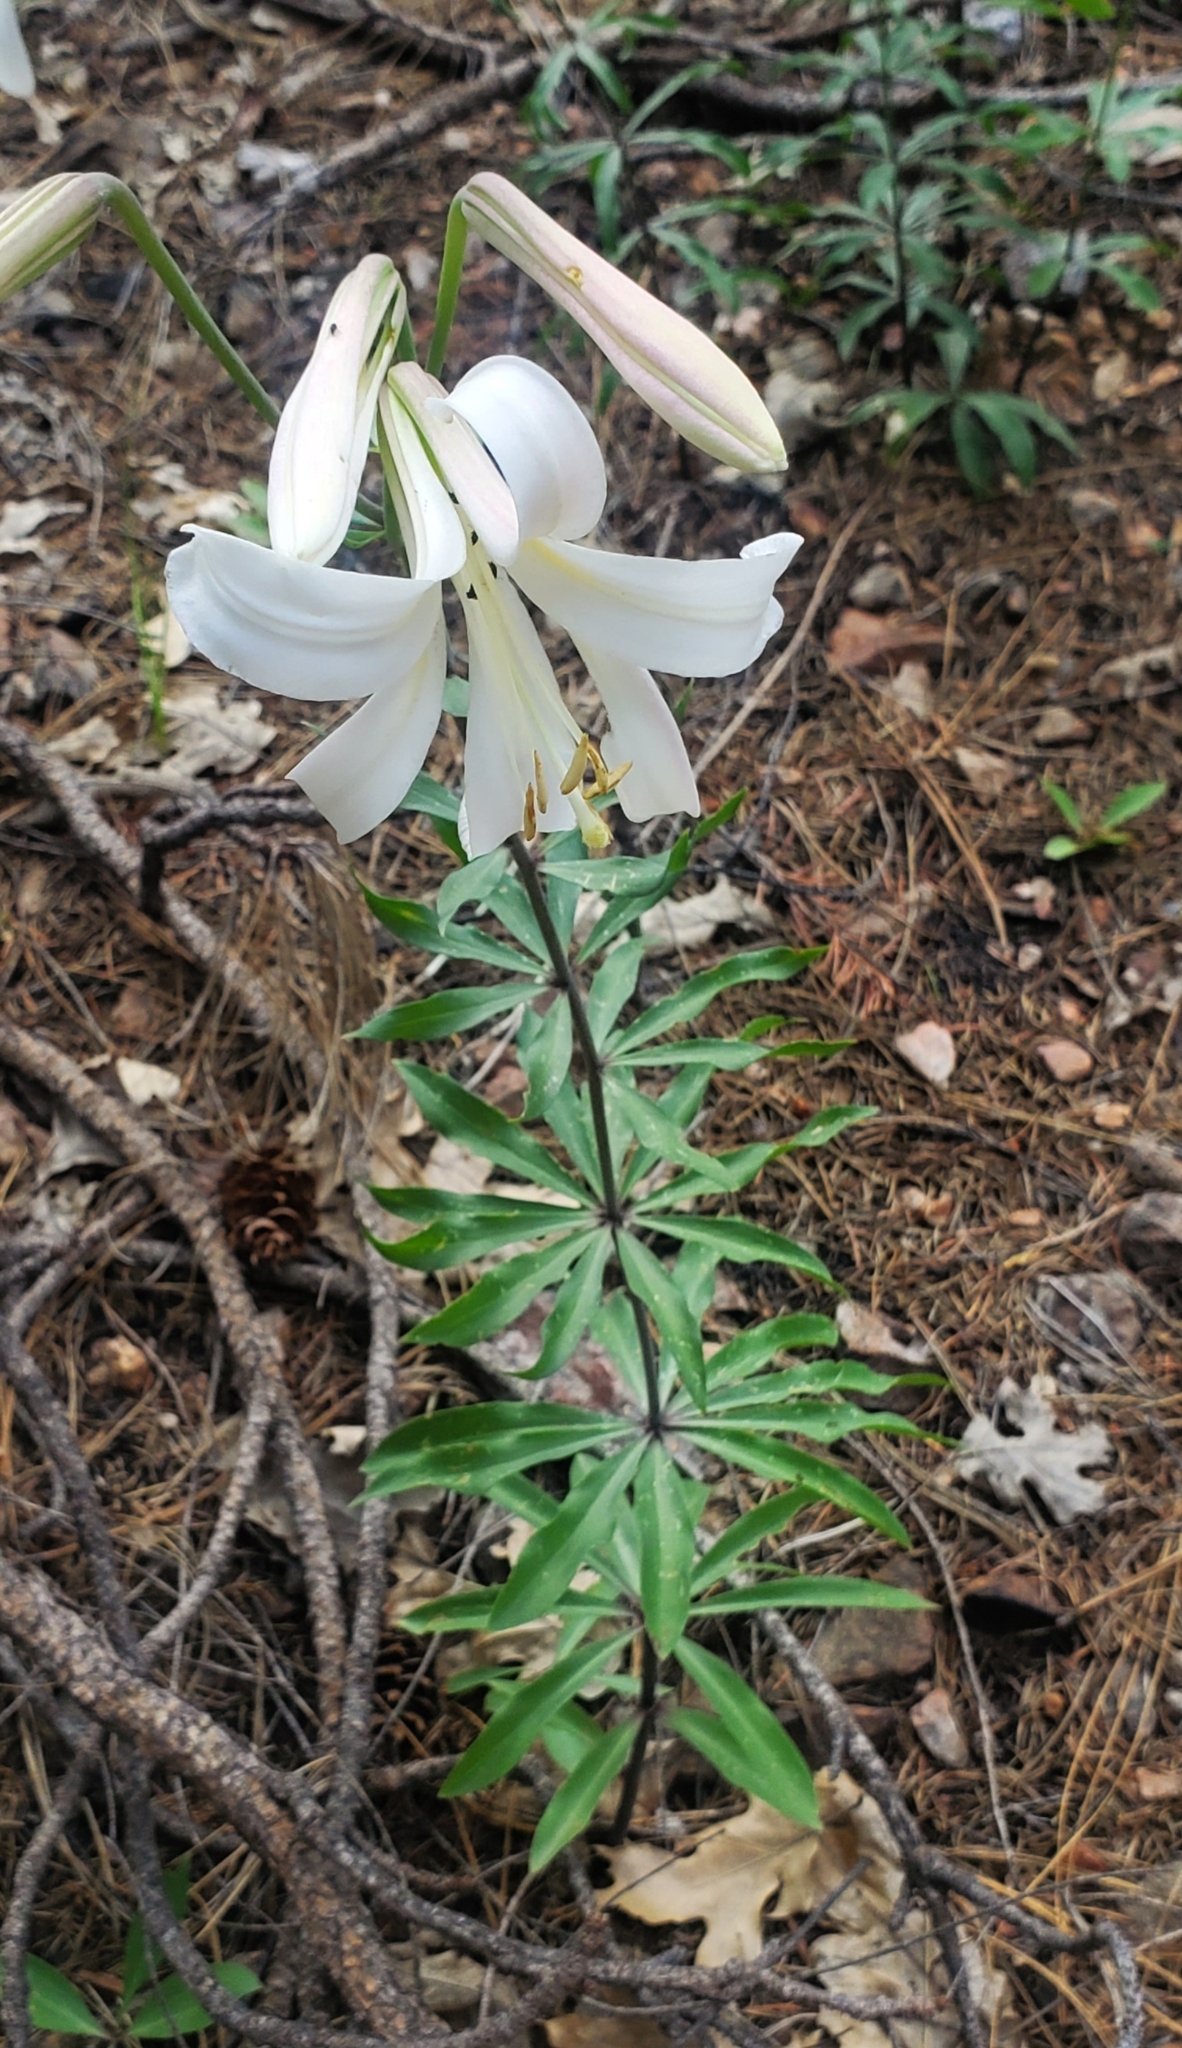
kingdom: Plantae
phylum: Tracheophyta
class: Liliopsida
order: Liliales
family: Liliaceae
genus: Lilium
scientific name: Lilium washingtonianum
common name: Washington lily
